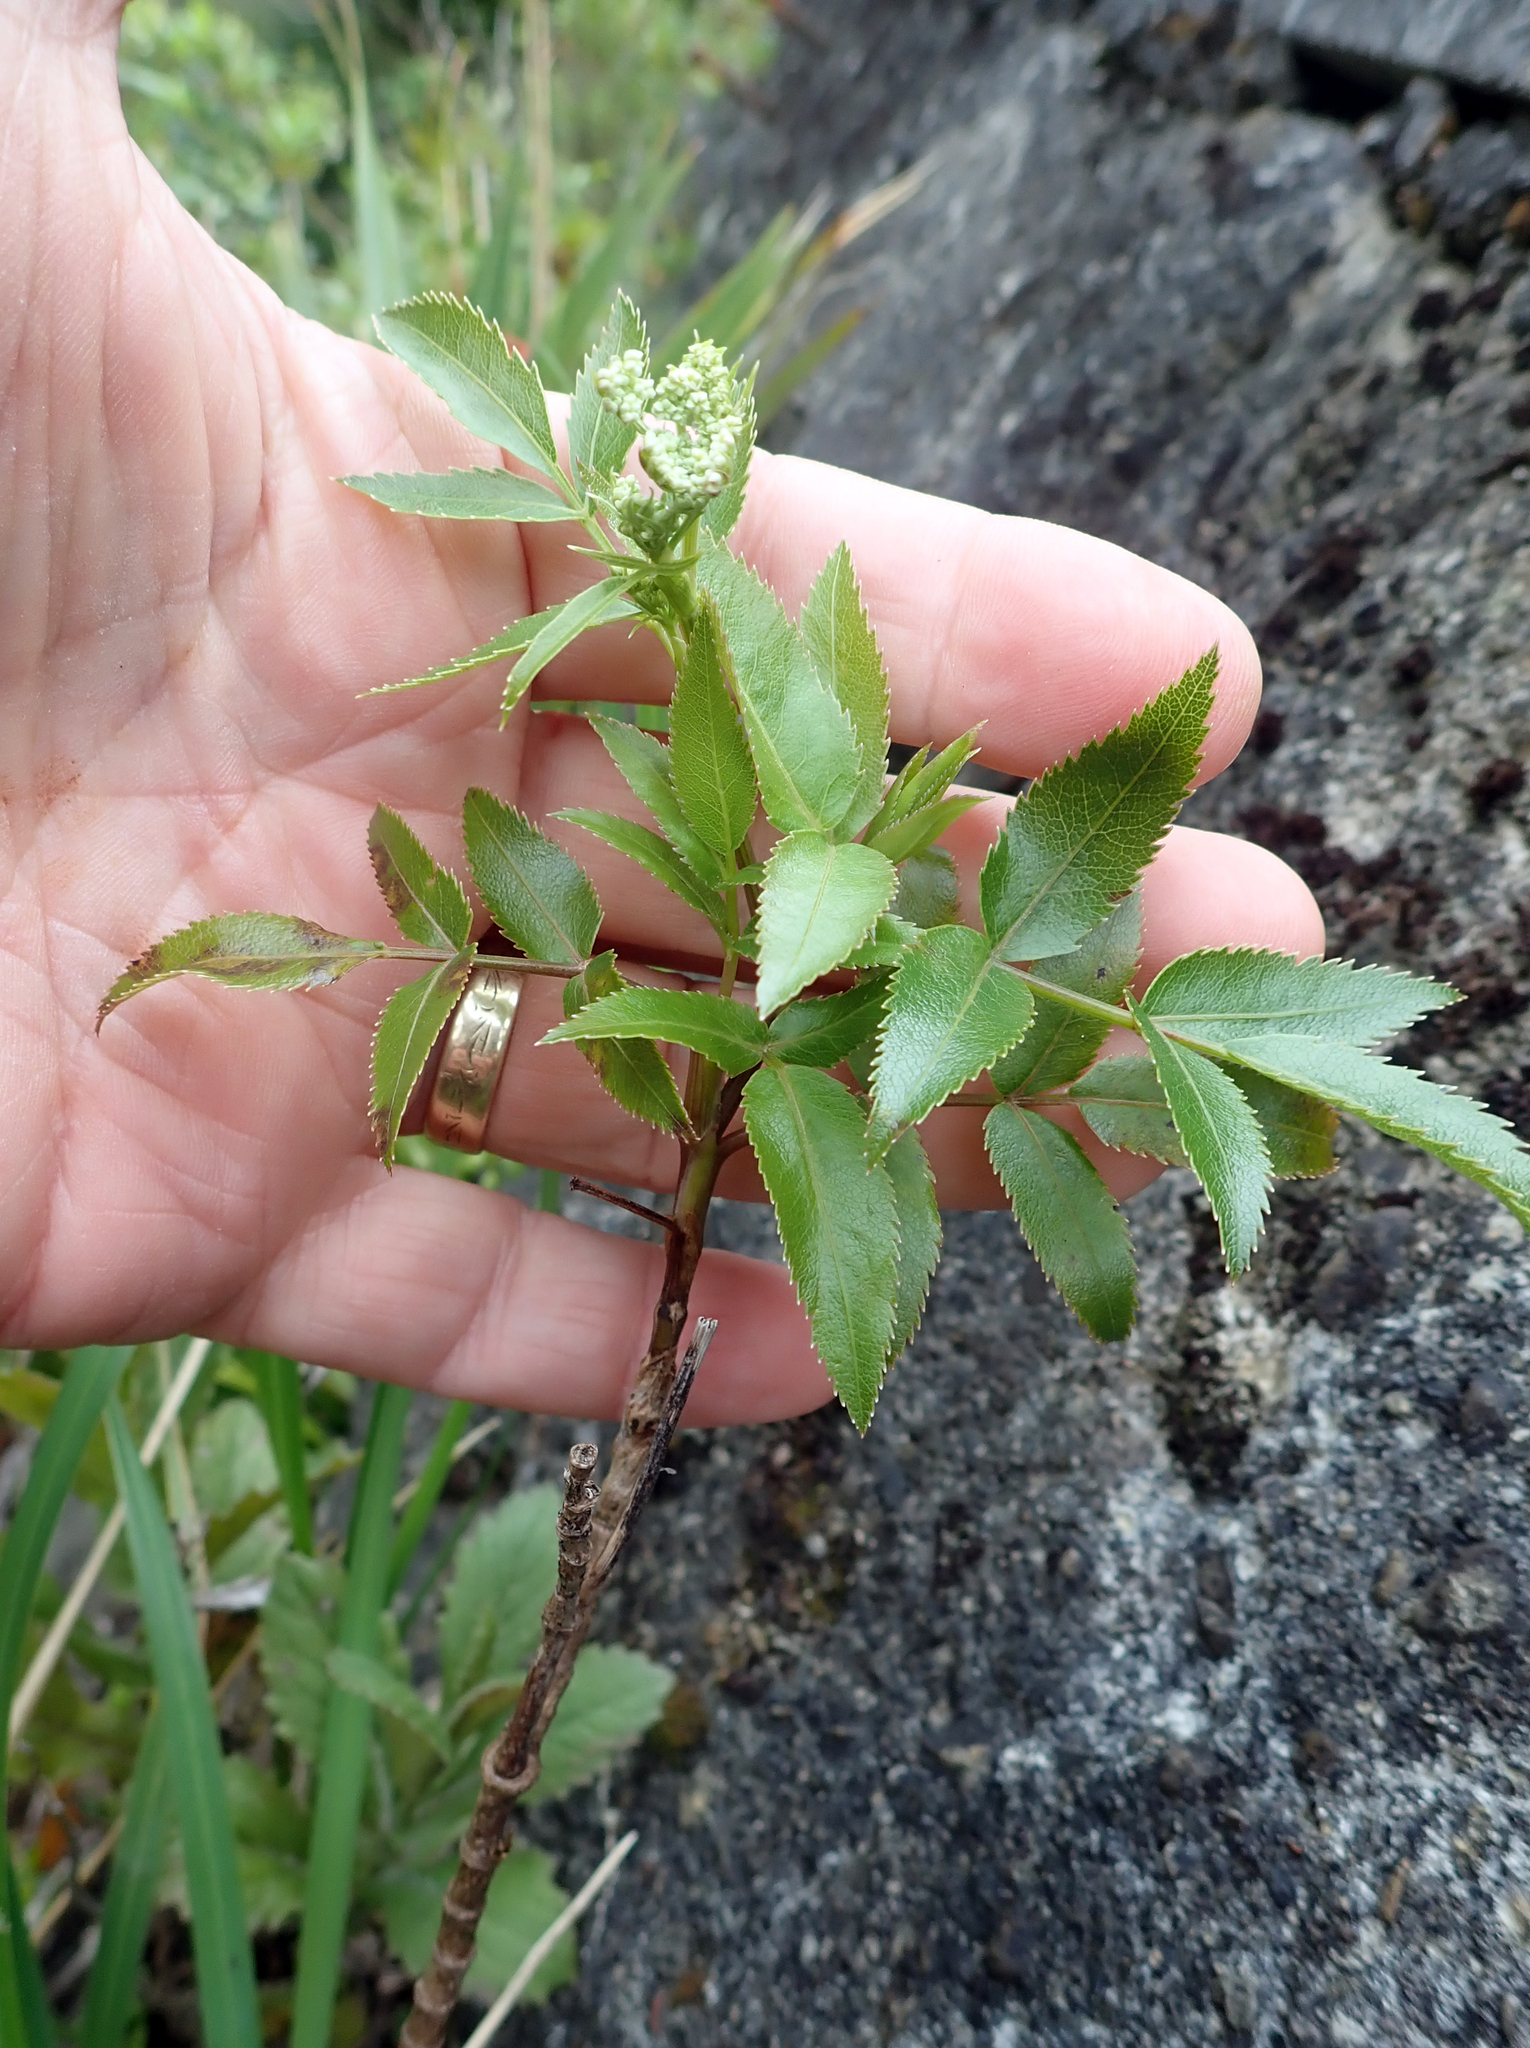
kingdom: Plantae
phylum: Tracheophyta
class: Magnoliopsida
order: Apiales
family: Apiaceae
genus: Scandia
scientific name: Scandia rosifolia
